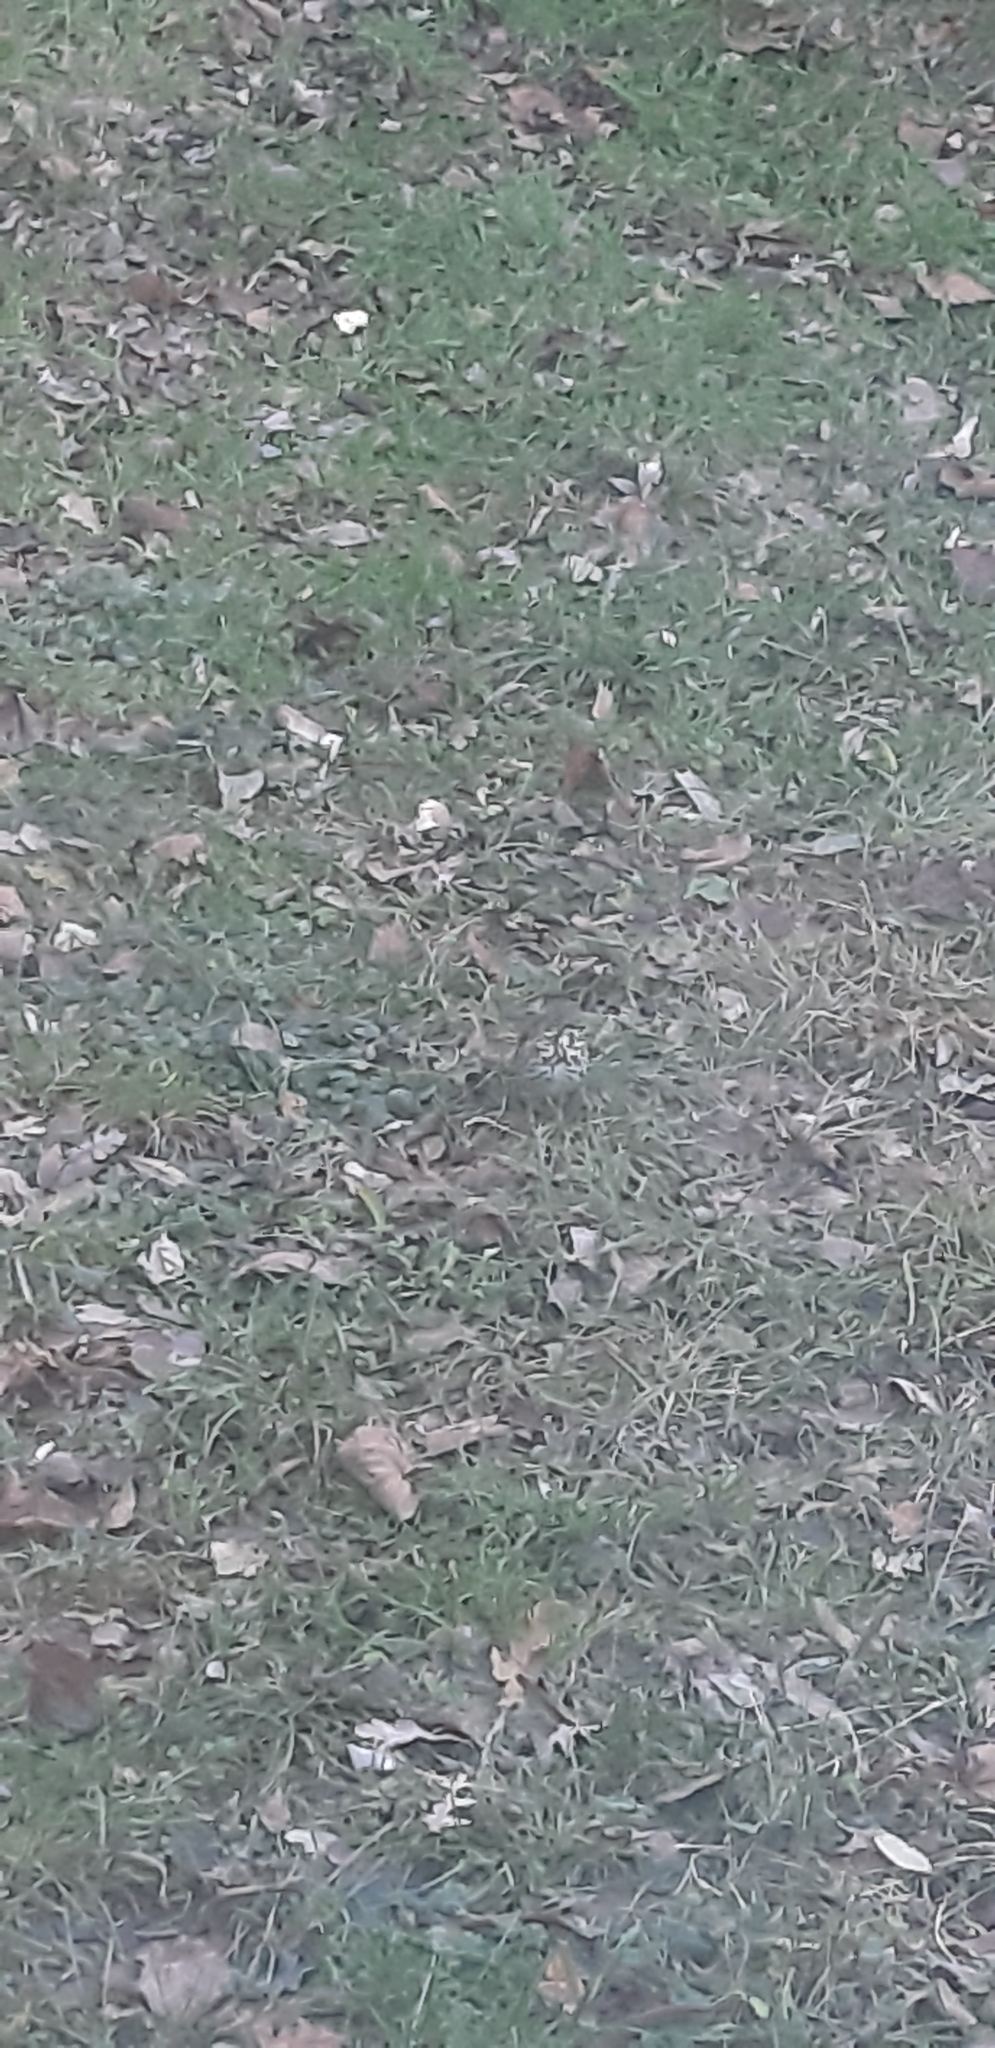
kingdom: Animalia
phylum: Chordata
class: Aves
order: Passeriformes
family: Turdidae
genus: Turdus
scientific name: Turdus philomelos
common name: Song thrush
